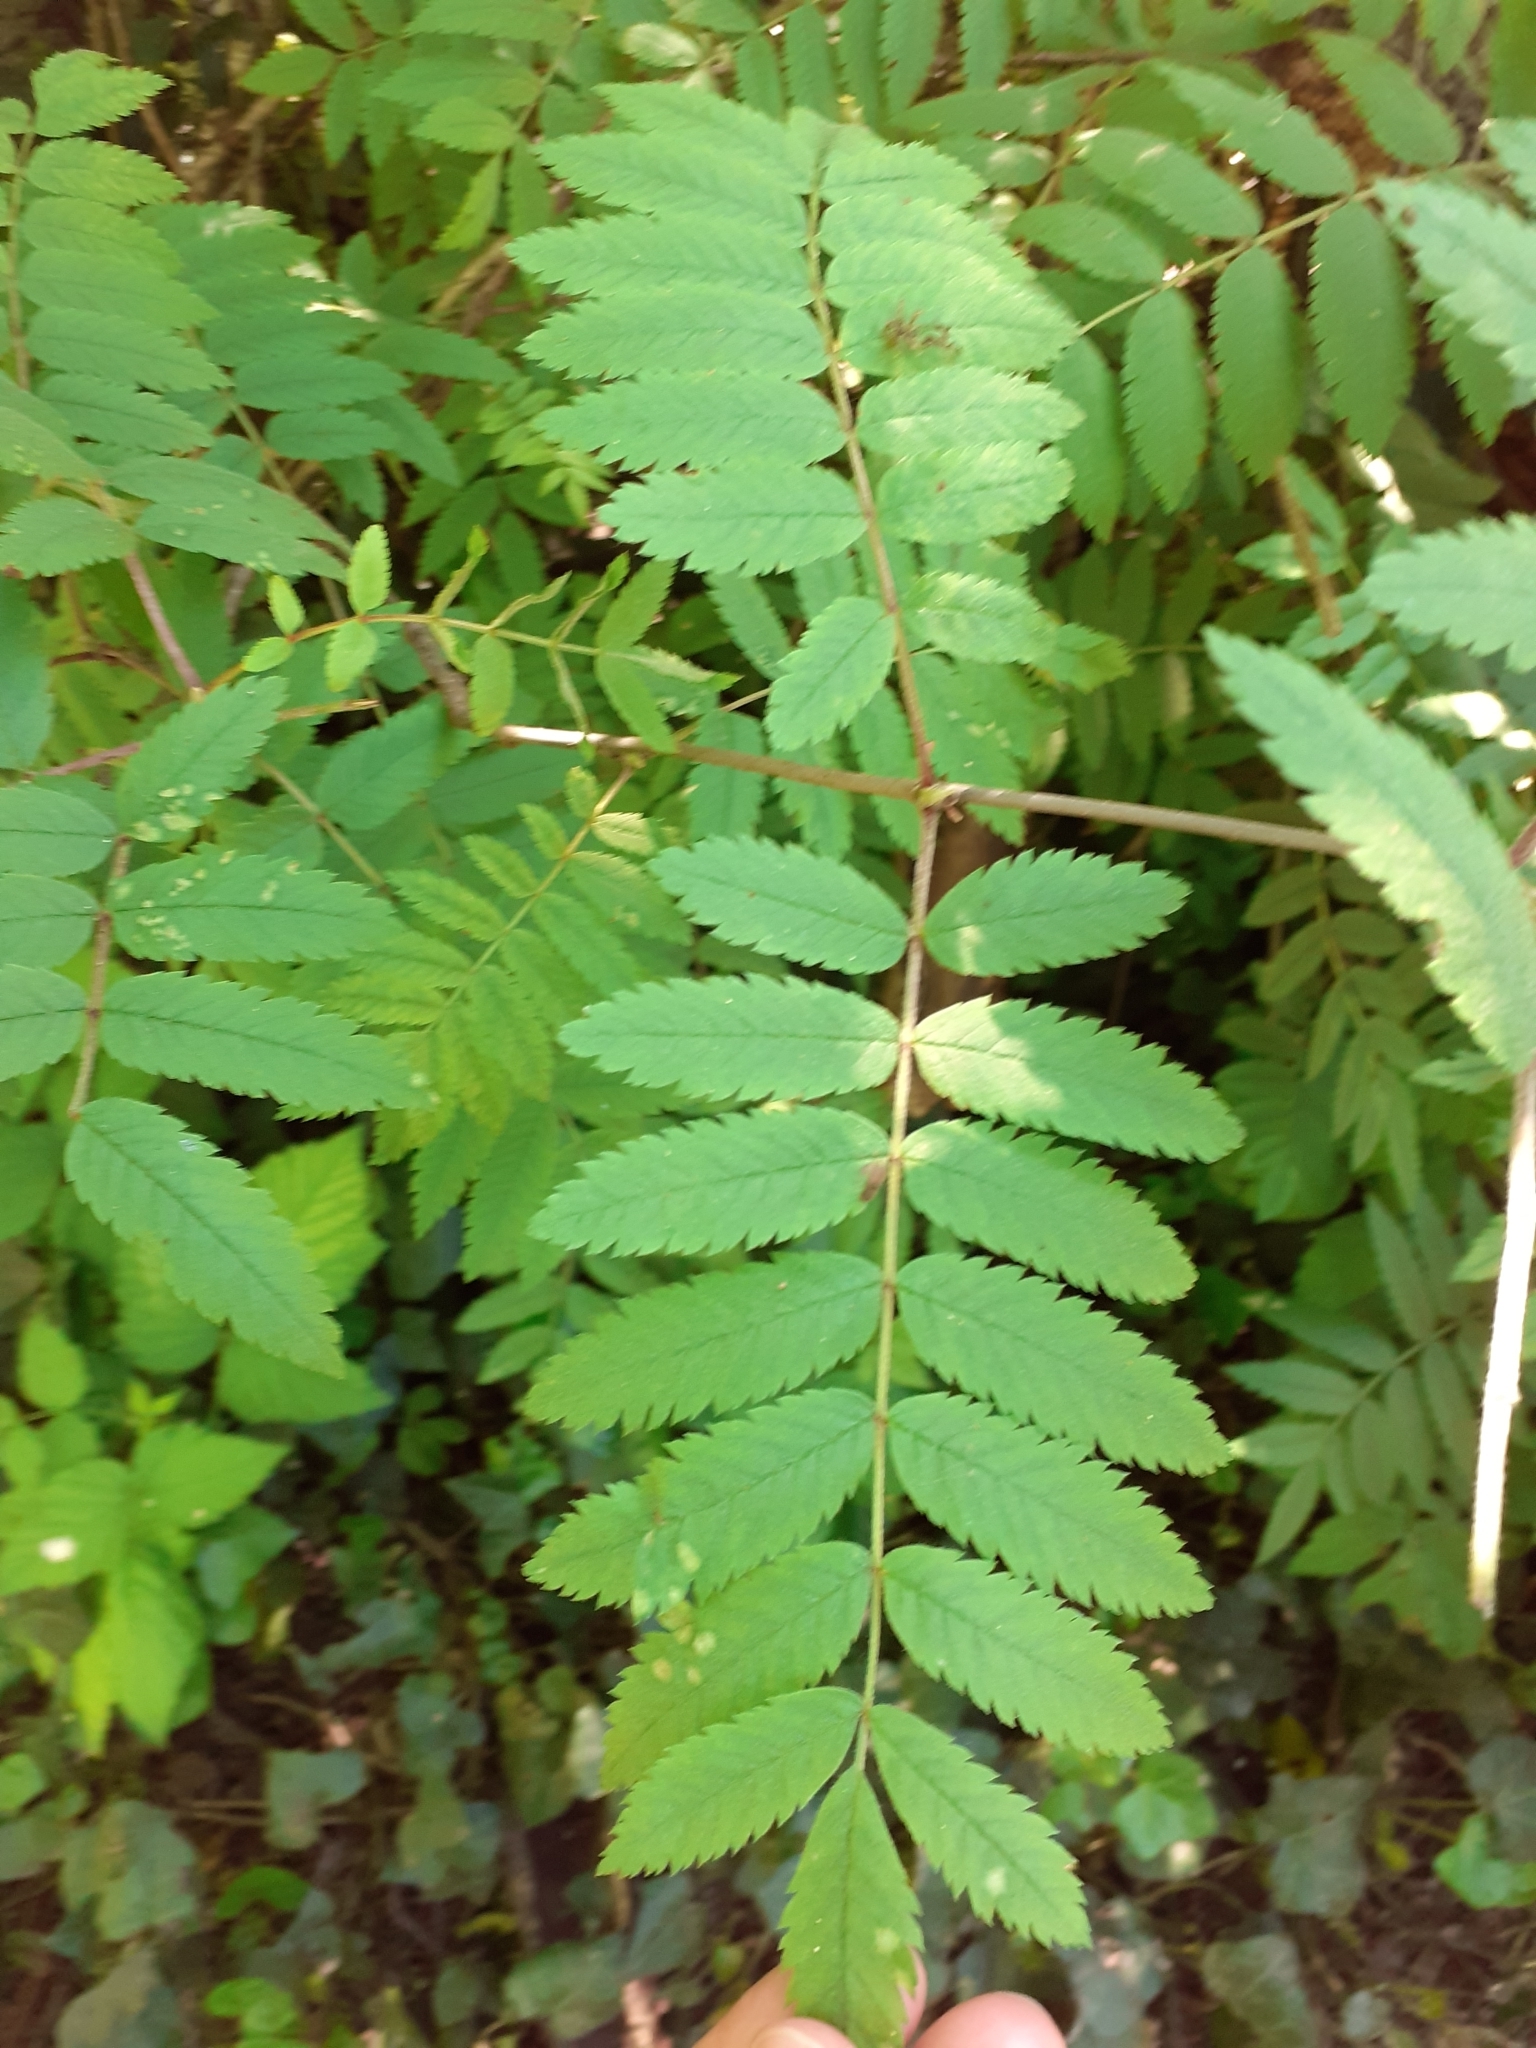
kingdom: Plantae
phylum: Tracheophyta
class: Magnoliopsida
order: Rosales
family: Rosaceae
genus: Sorbus
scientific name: Sorbus aucuparia
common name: Rowan
